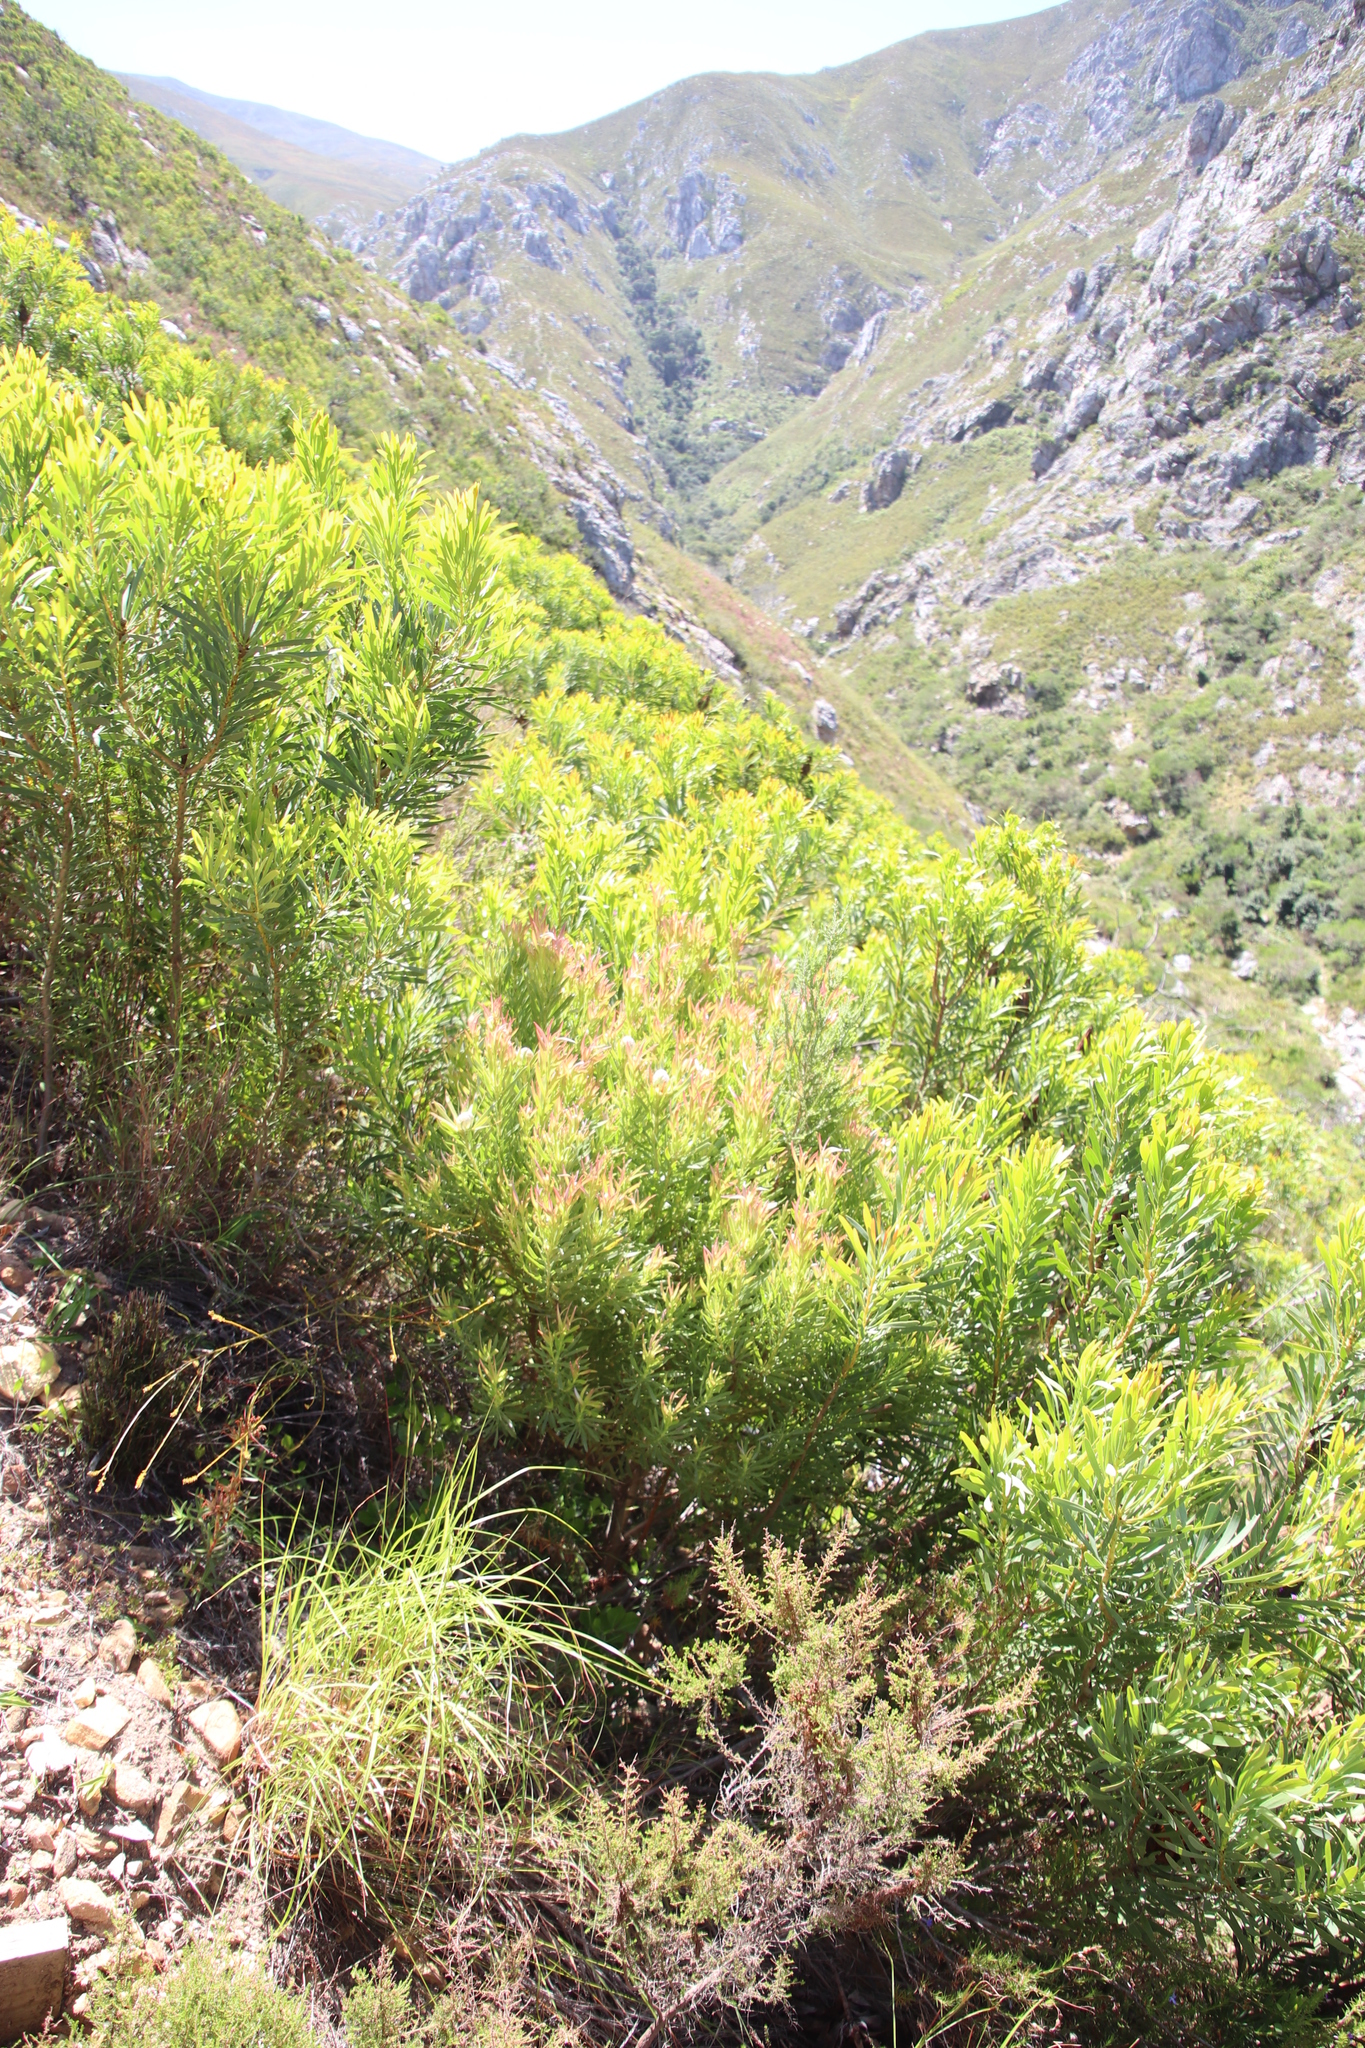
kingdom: Plantae
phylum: Tracheophyta
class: Magnoliopsida
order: Proteales
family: Proteaceae
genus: Leucadendron
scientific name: Leucadendron xanthoconus
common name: Sickle-leaf conebush
